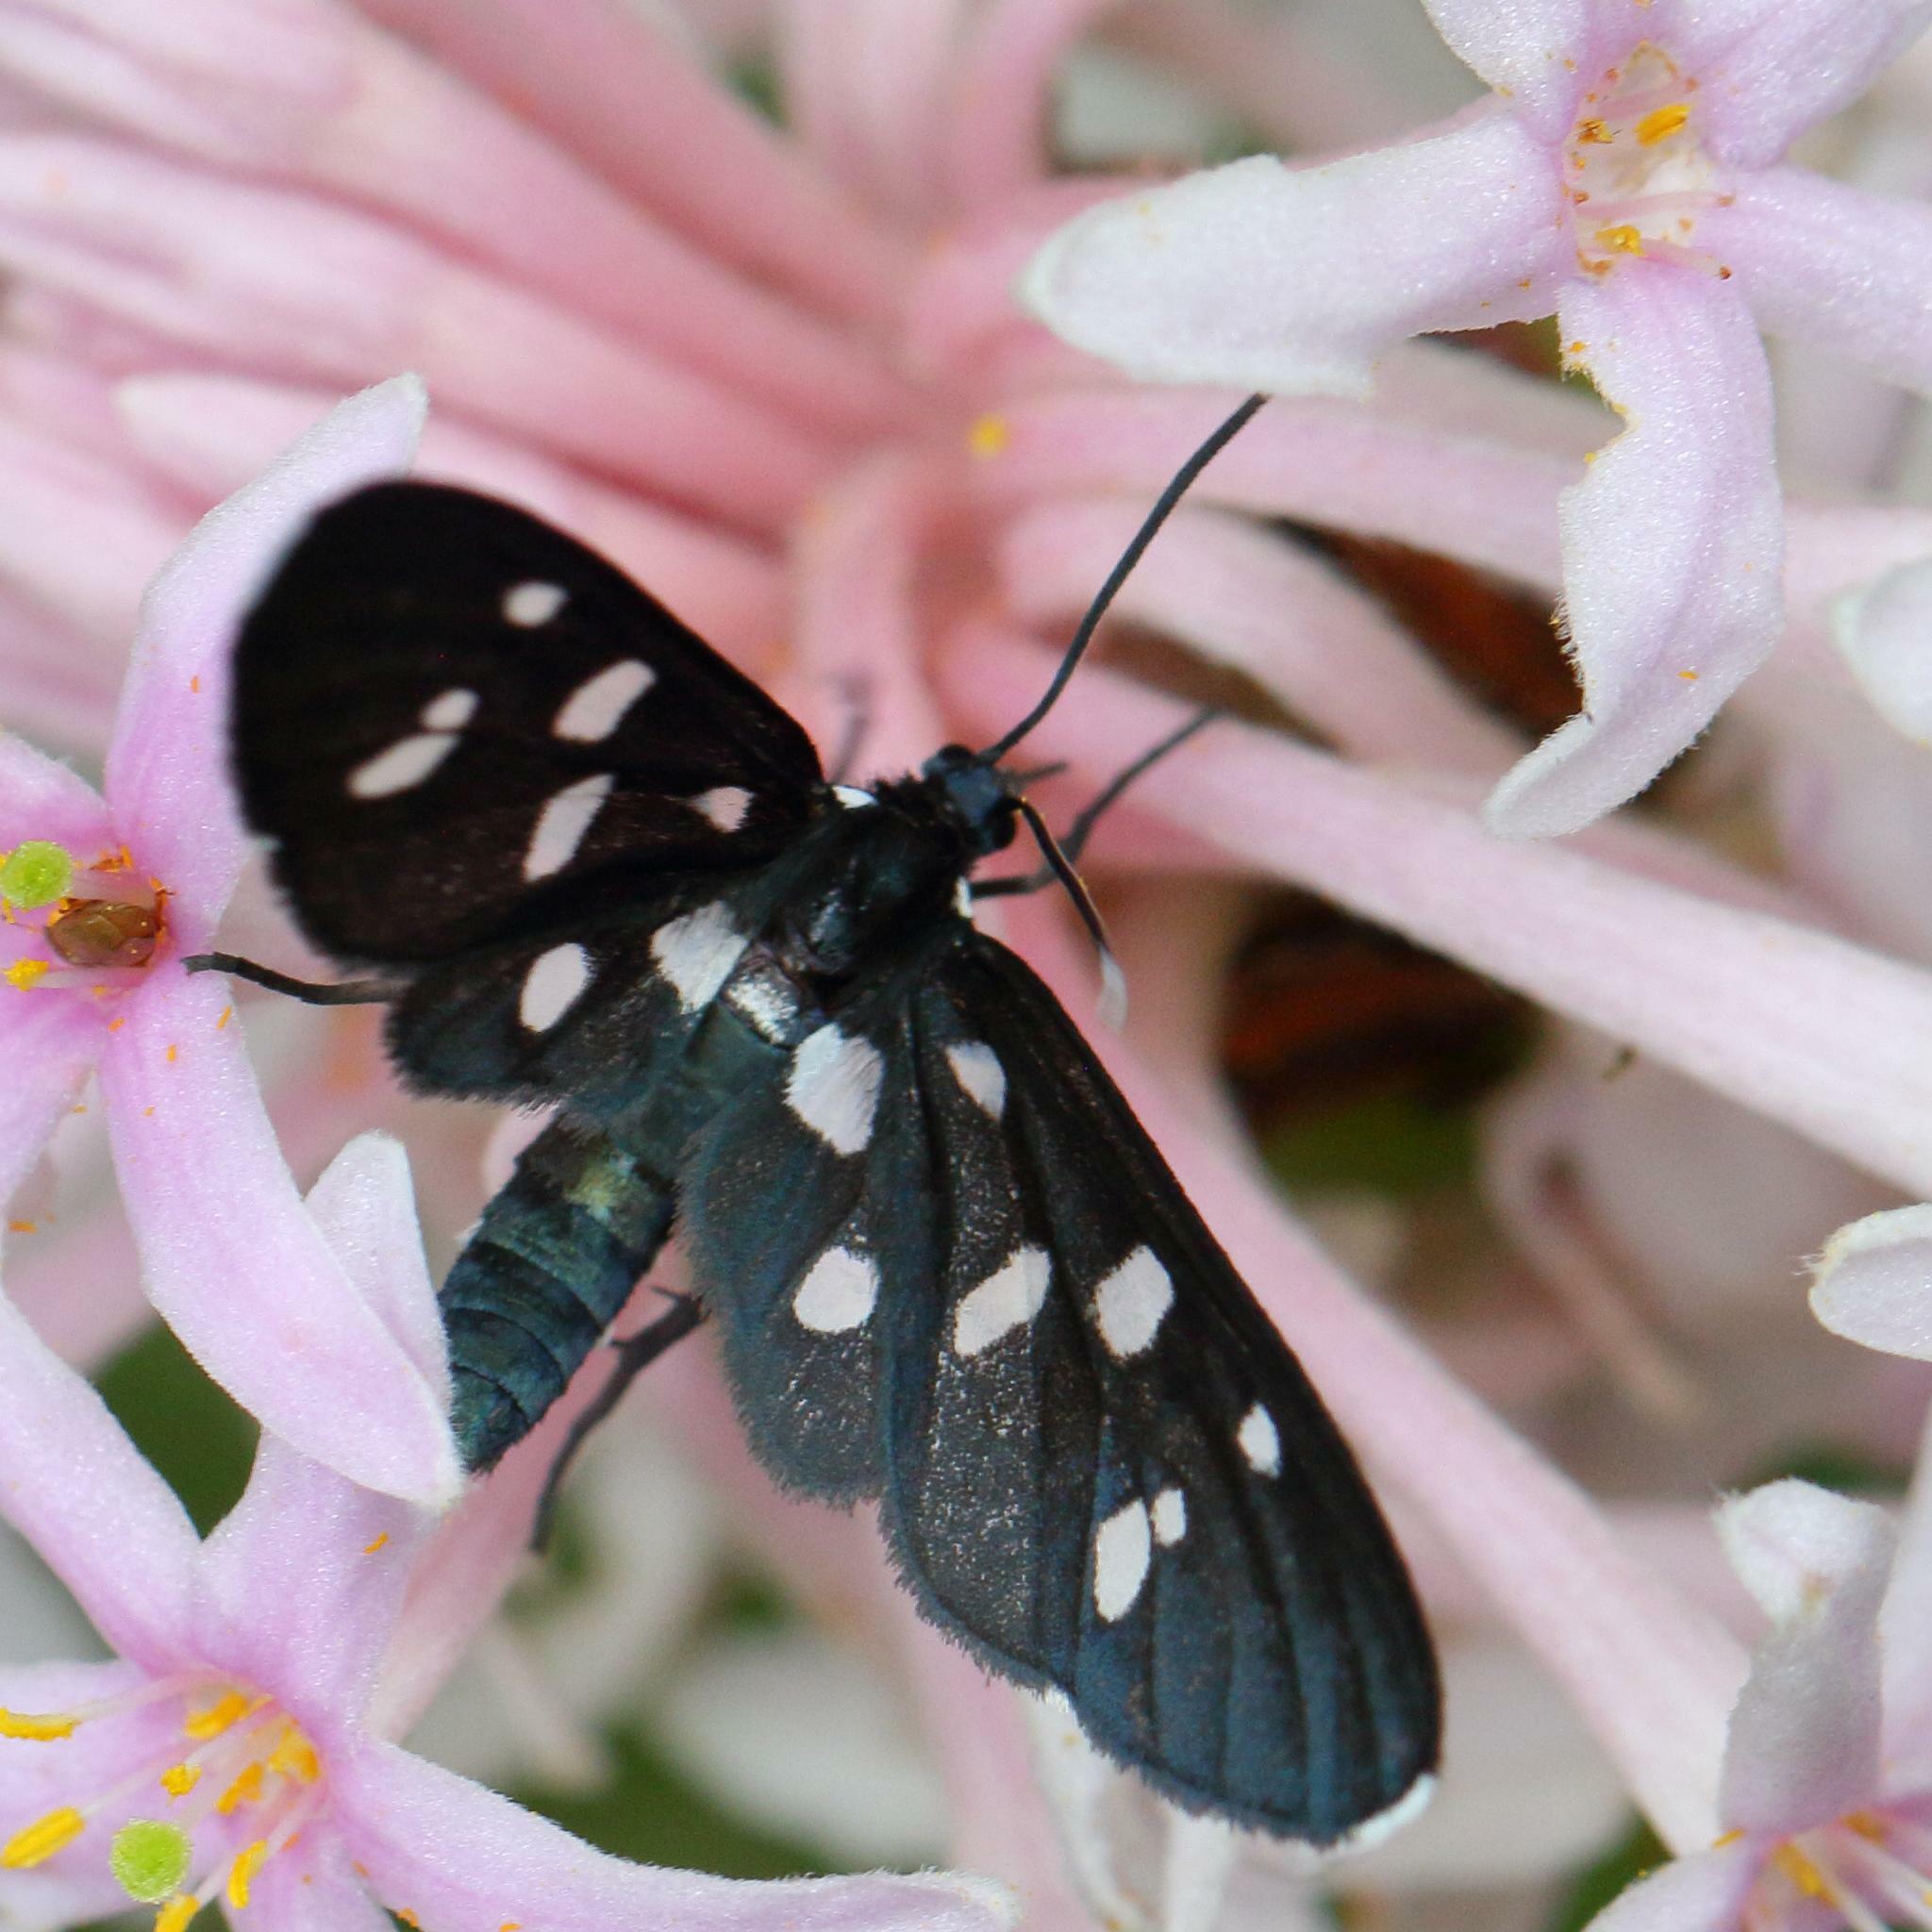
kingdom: Animalia
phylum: Arthropoda
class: Insecta
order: Lepidoptera
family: Erebidae
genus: Ceryx
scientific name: Ceryx longipes
